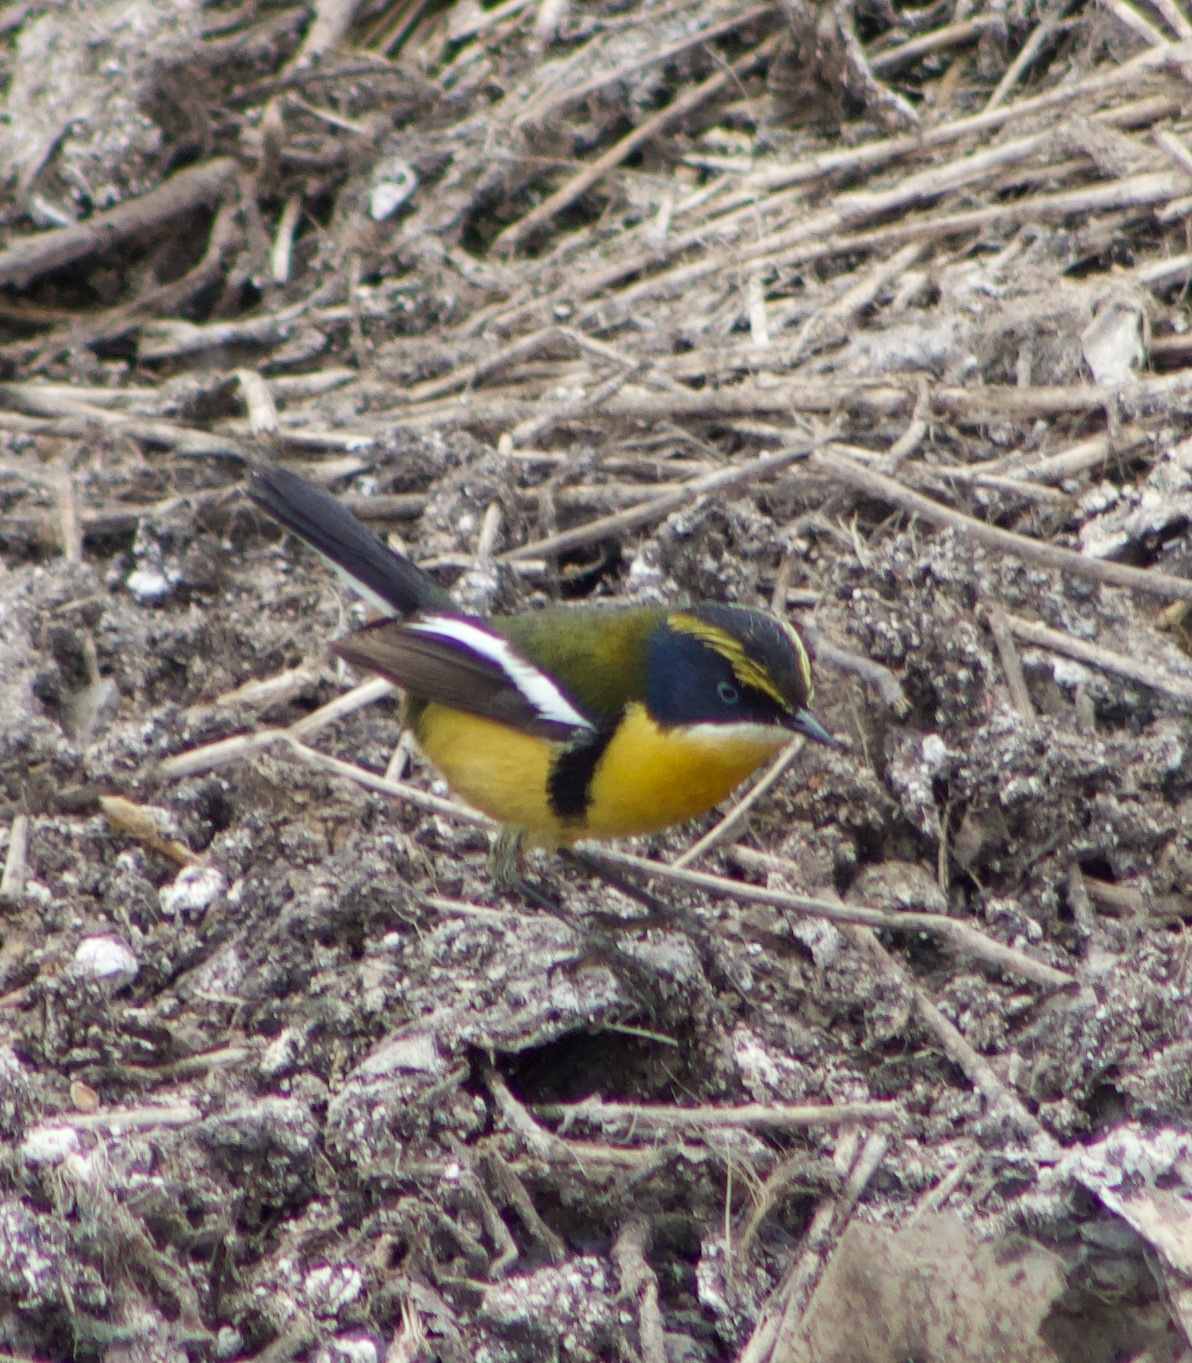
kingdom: Animalia
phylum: Chordata
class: Aves
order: Passeriformes
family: Tyrannidae
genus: Tachuris
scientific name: Tachuris rubrigastra
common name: Many-colored rush tyrant
